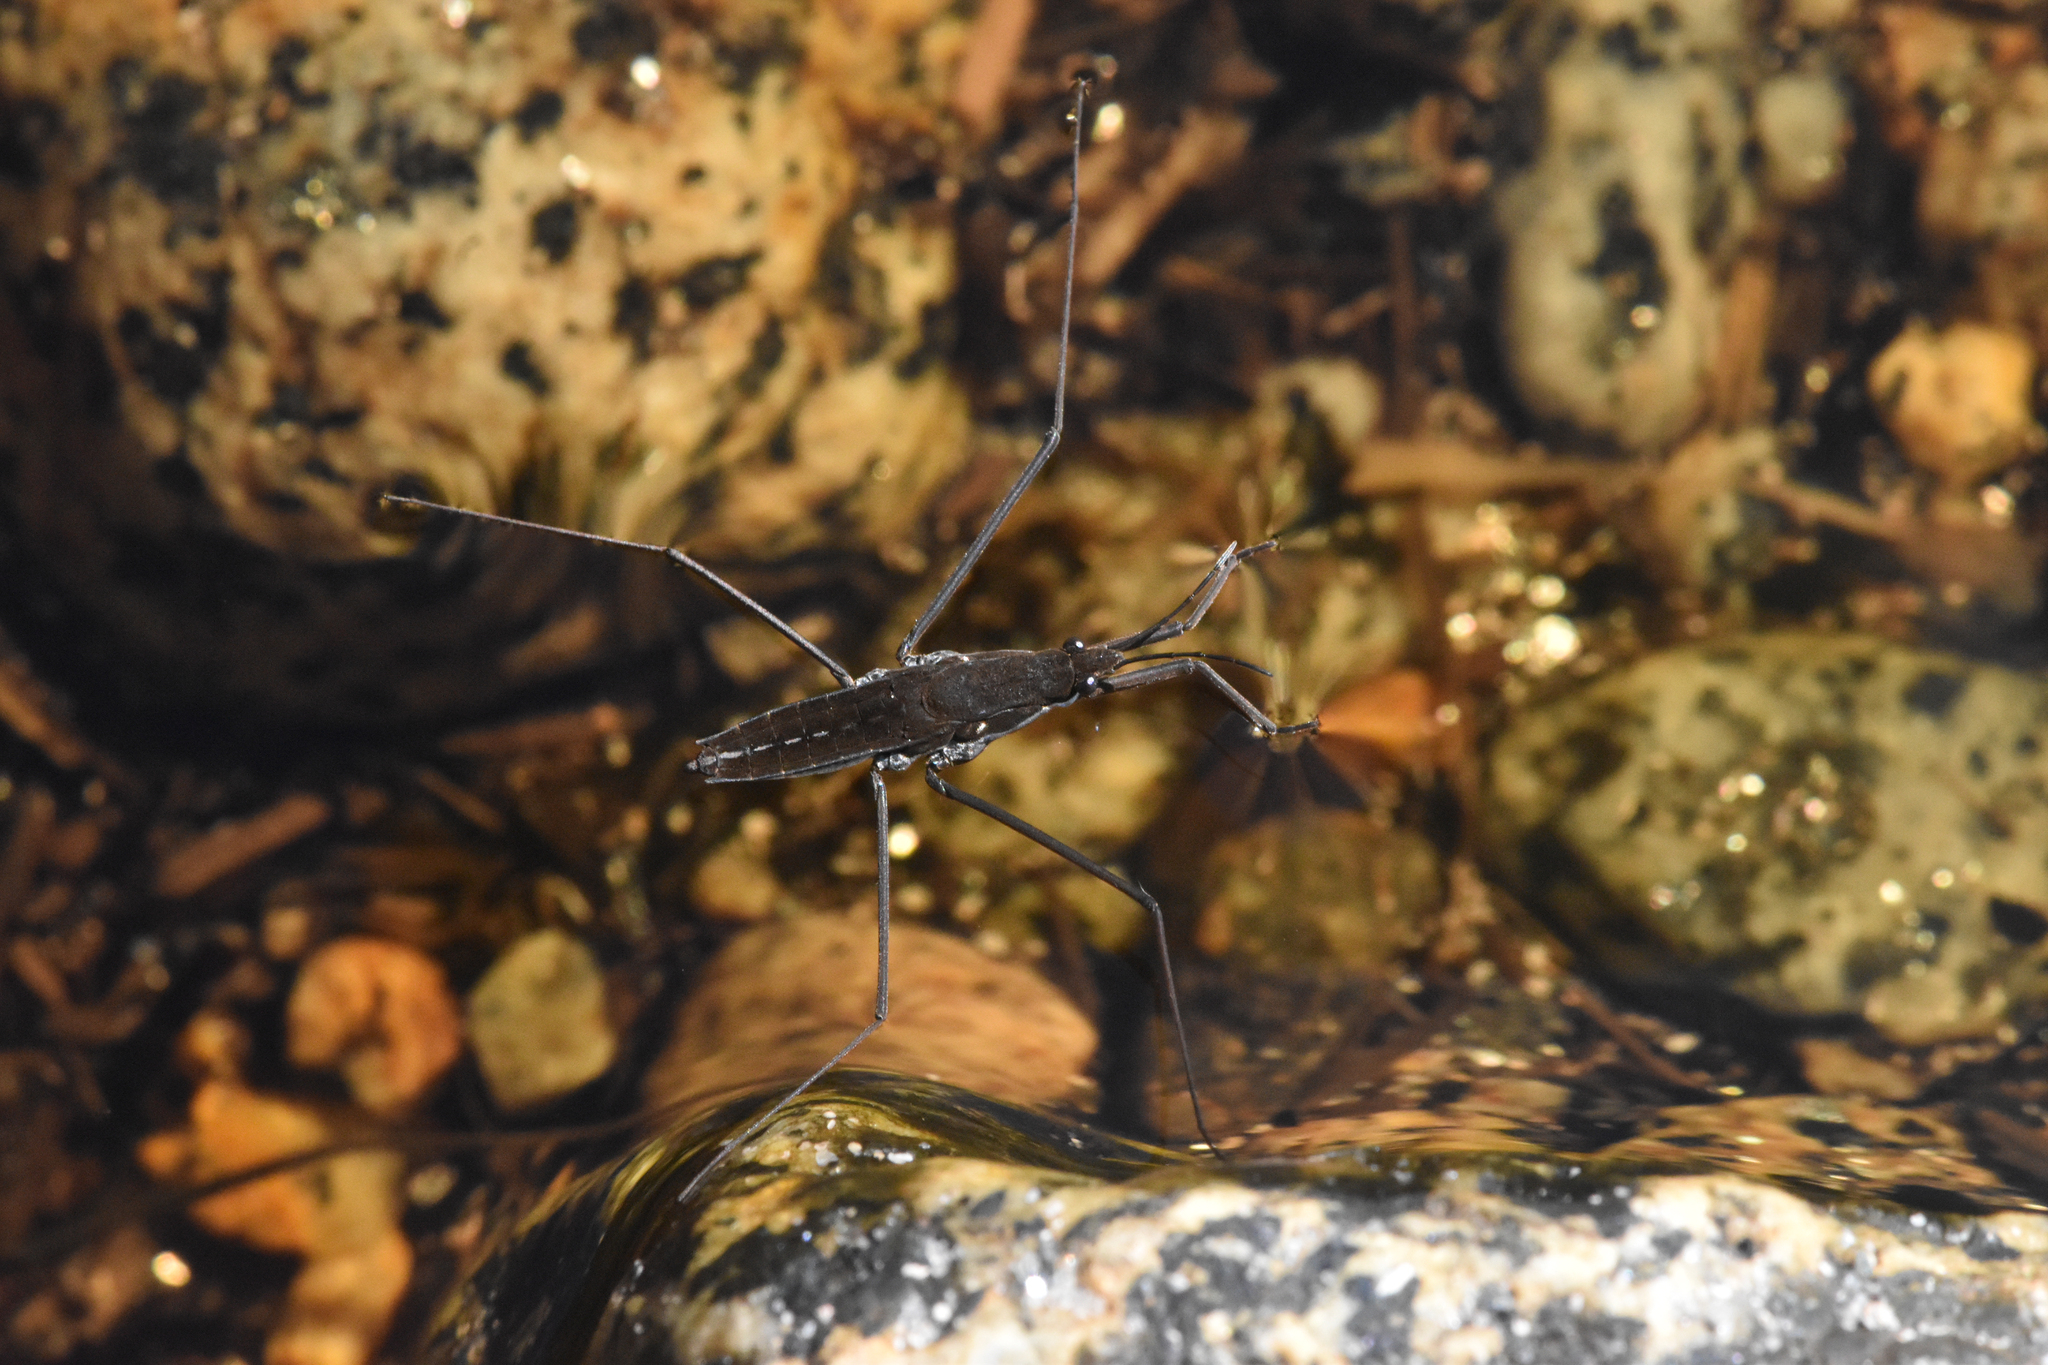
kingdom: Animalia
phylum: Arthropoda
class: Insecta
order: Hemiptera
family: Gerridae
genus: Aquarius
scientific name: Aquarius remigis
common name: Common water strider
